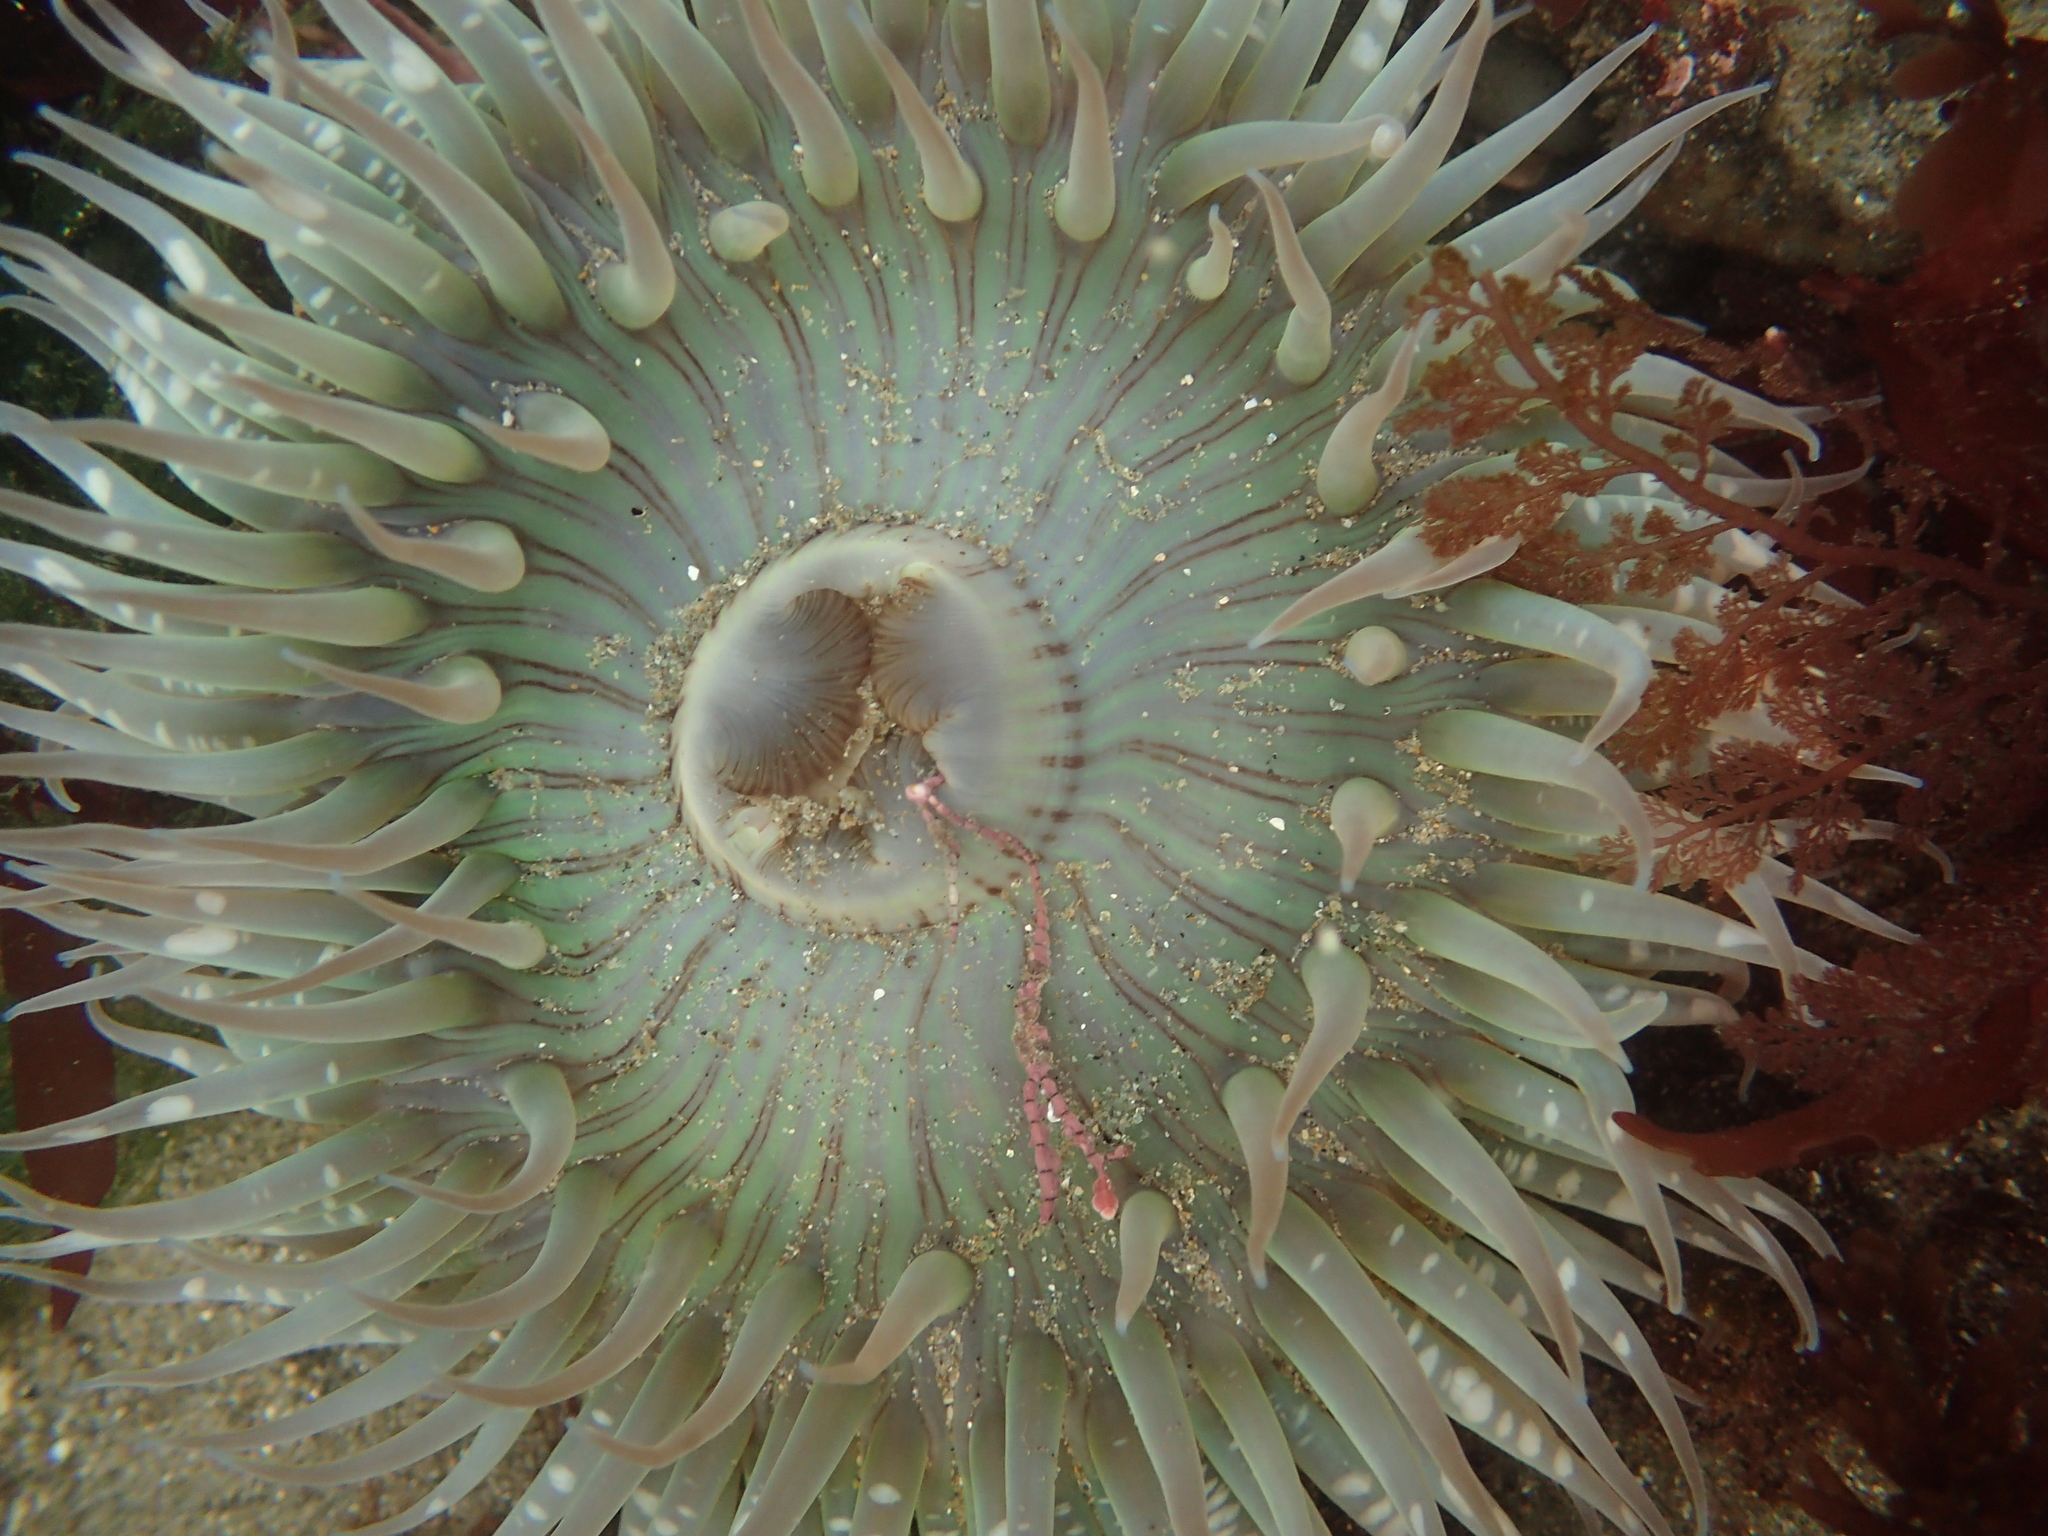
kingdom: Animalia
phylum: Cnidaria
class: Anthozoa
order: Actiniaria
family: Actiniidae
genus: Anthopleura
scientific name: Anthopleura sola
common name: Sun anemone
